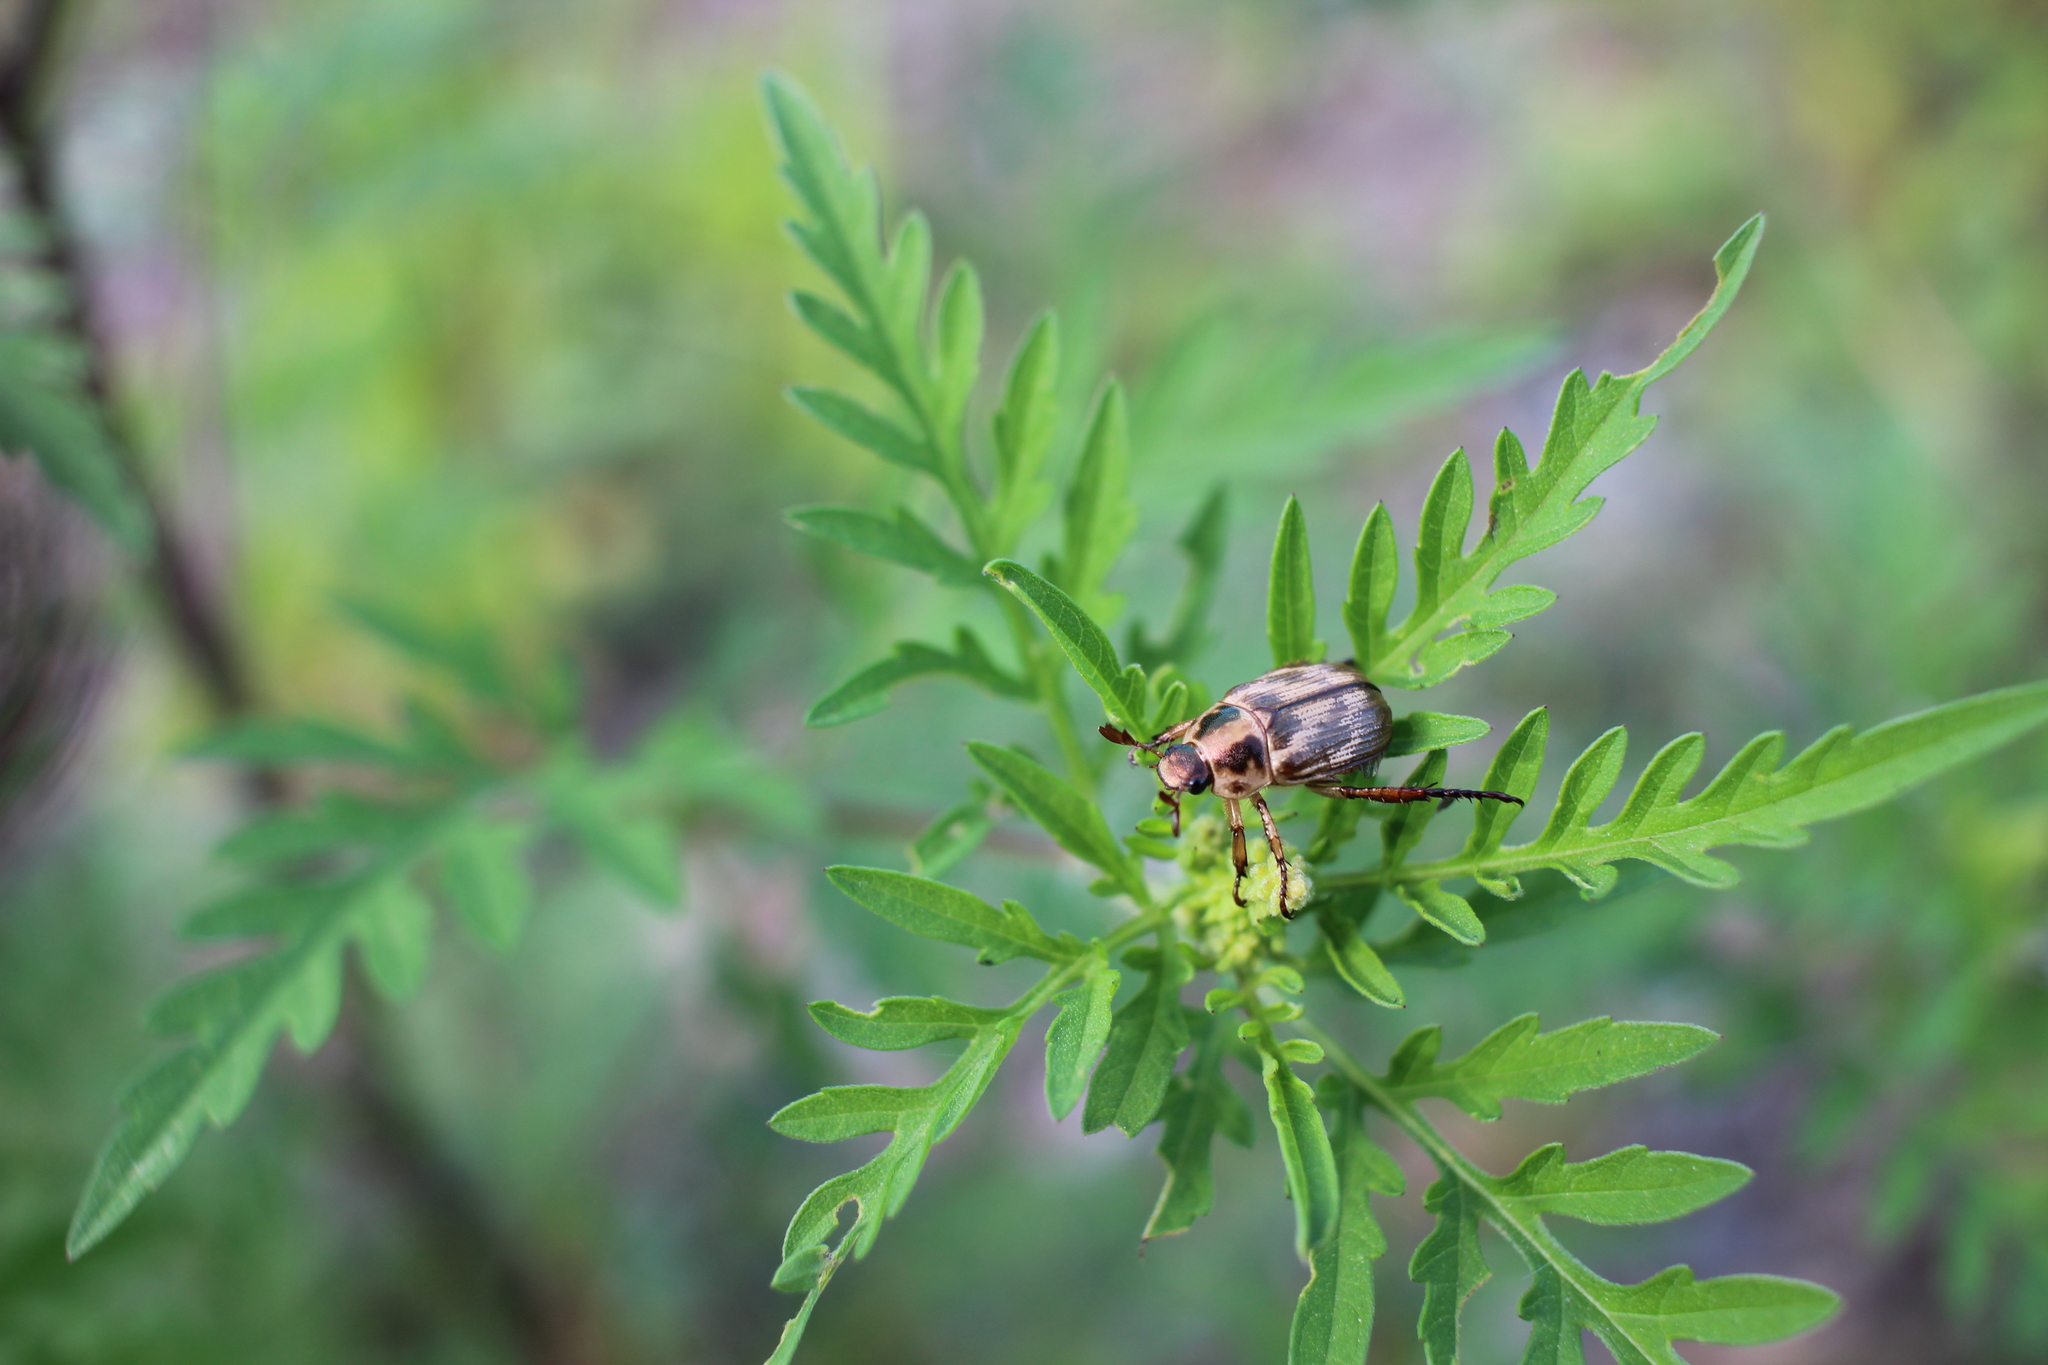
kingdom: Animalia
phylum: Arthropoda
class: Insecta
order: Coleoptera
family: Scarabaeidae
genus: Exomala
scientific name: Exomala orientalis
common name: Oriental beetle
